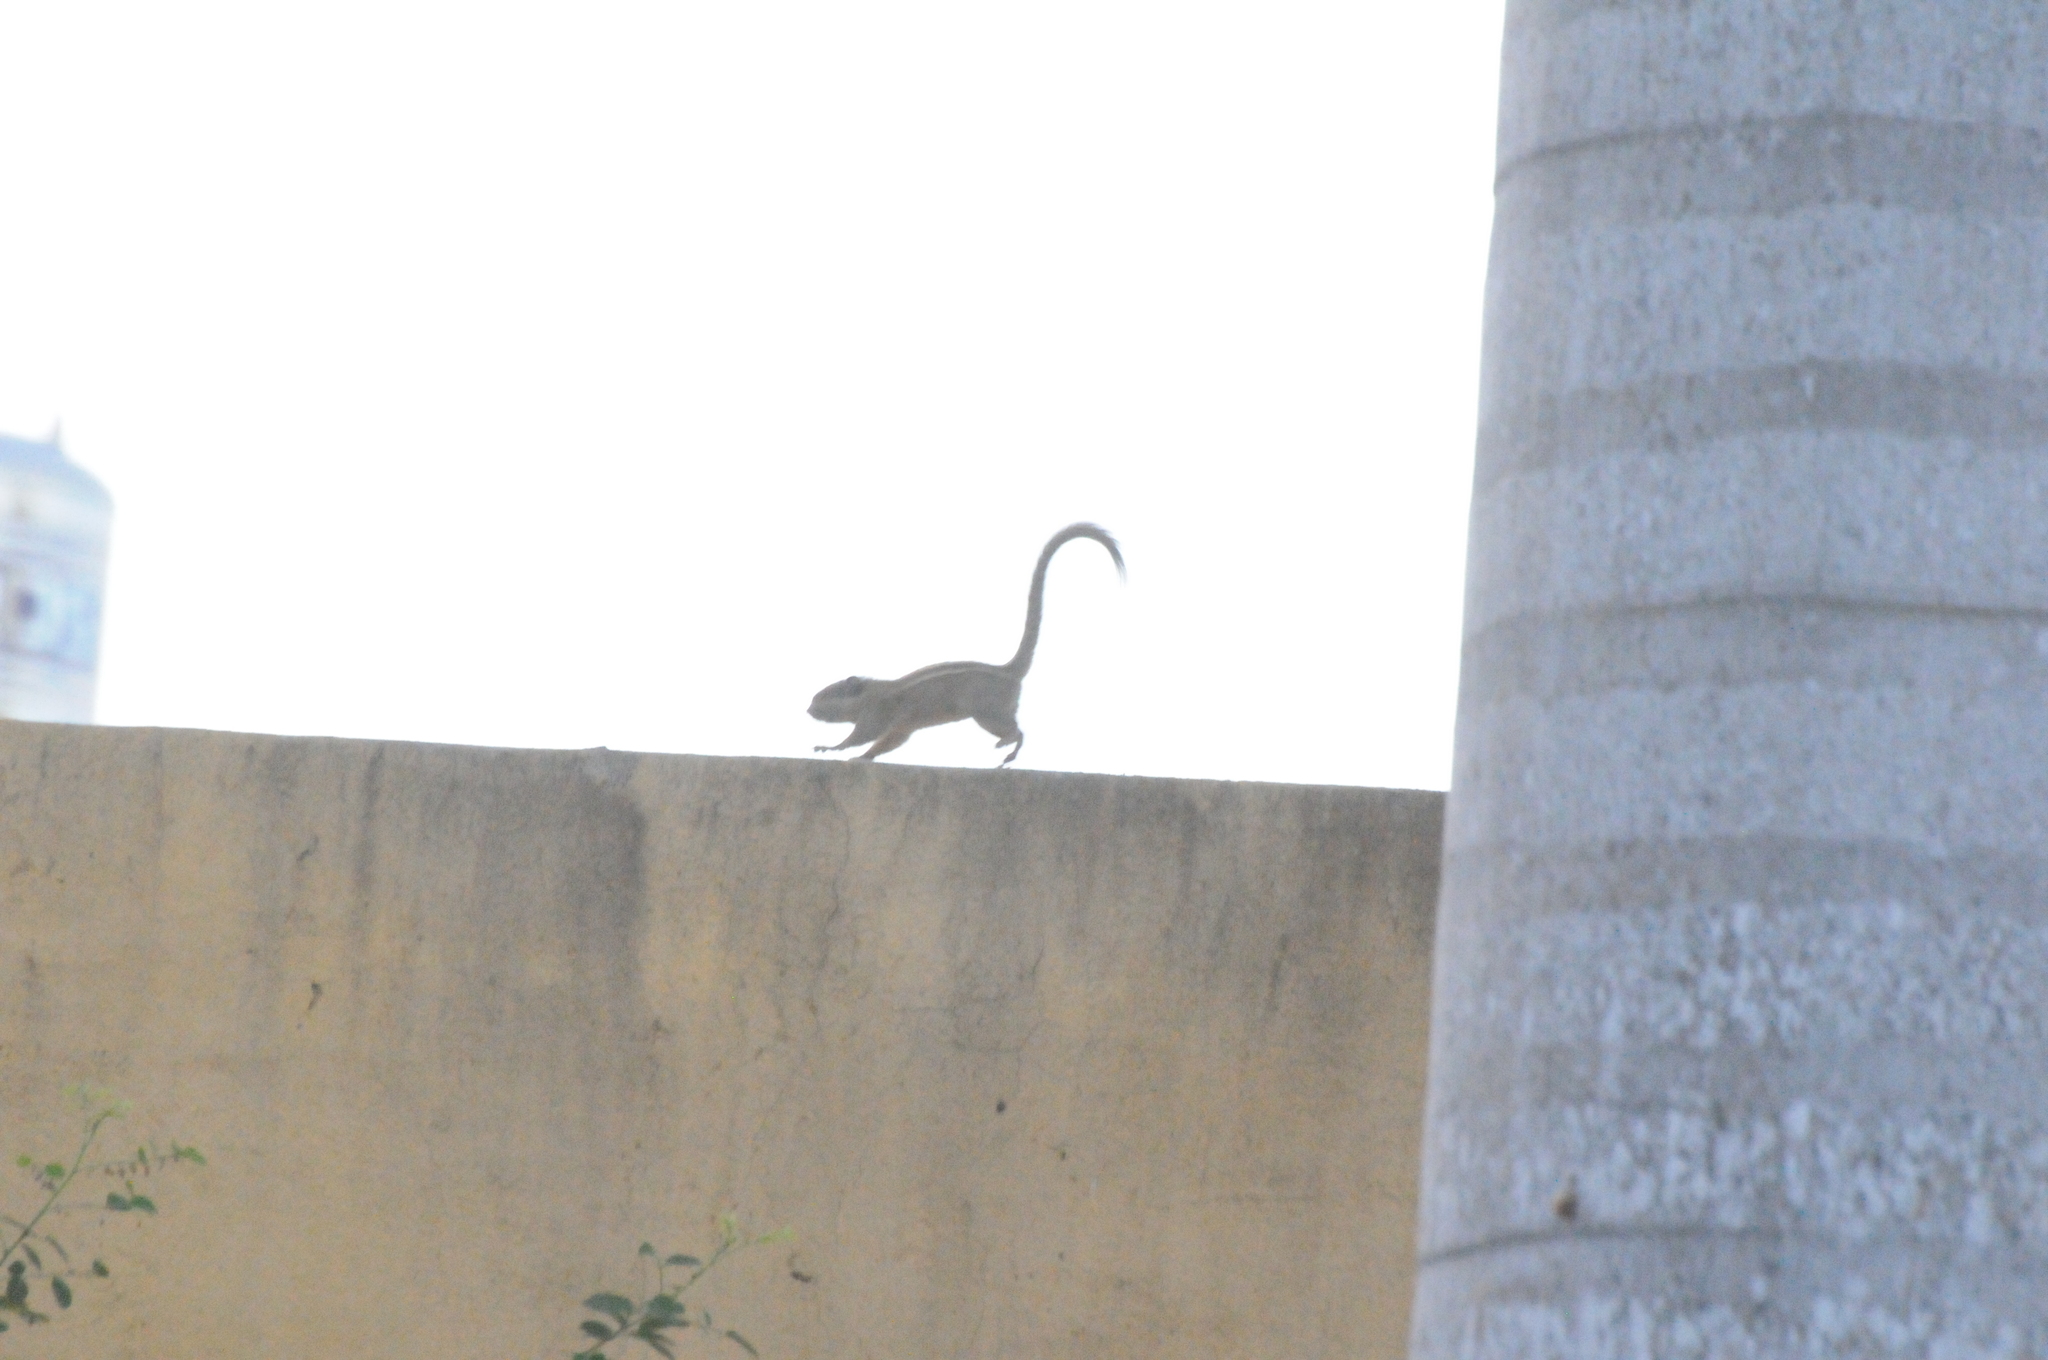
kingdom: Animalia
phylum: Chordata
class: Mammalia
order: Rodentia
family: Sciuridae
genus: Tamiops
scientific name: Tamiops rodolphii
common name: Cambodian striped squirrel
